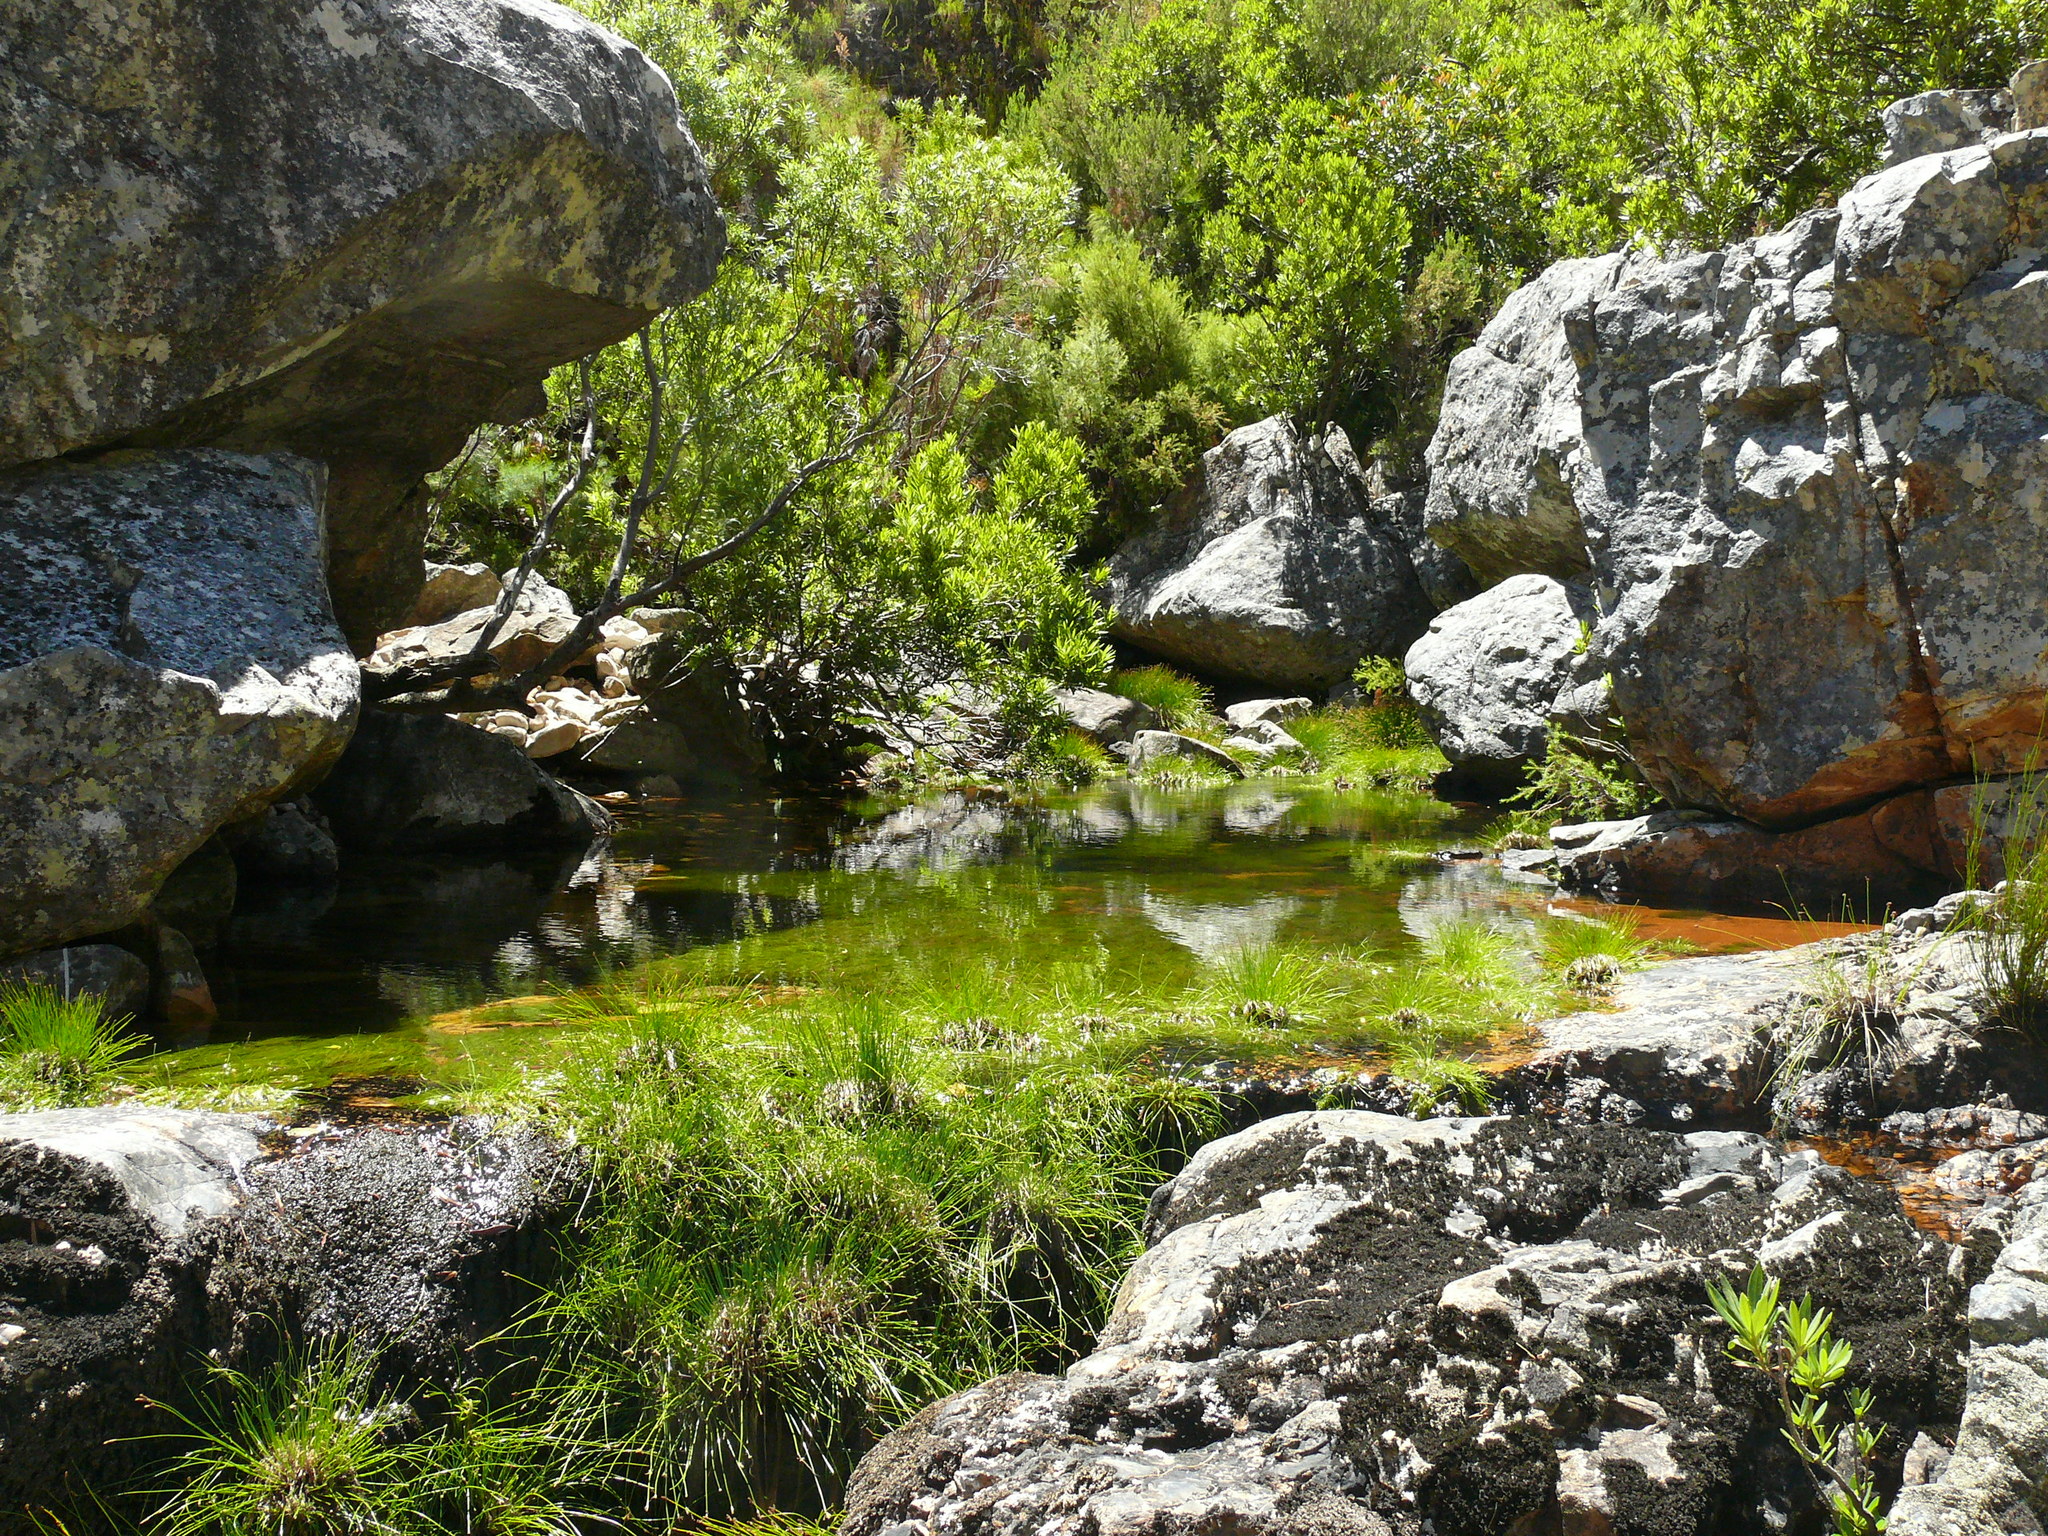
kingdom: Plantae
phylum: Tracheophyta
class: Liliopsida
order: Poales
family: Cyperaceae
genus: Isolepis
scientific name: Isolepis digitata
